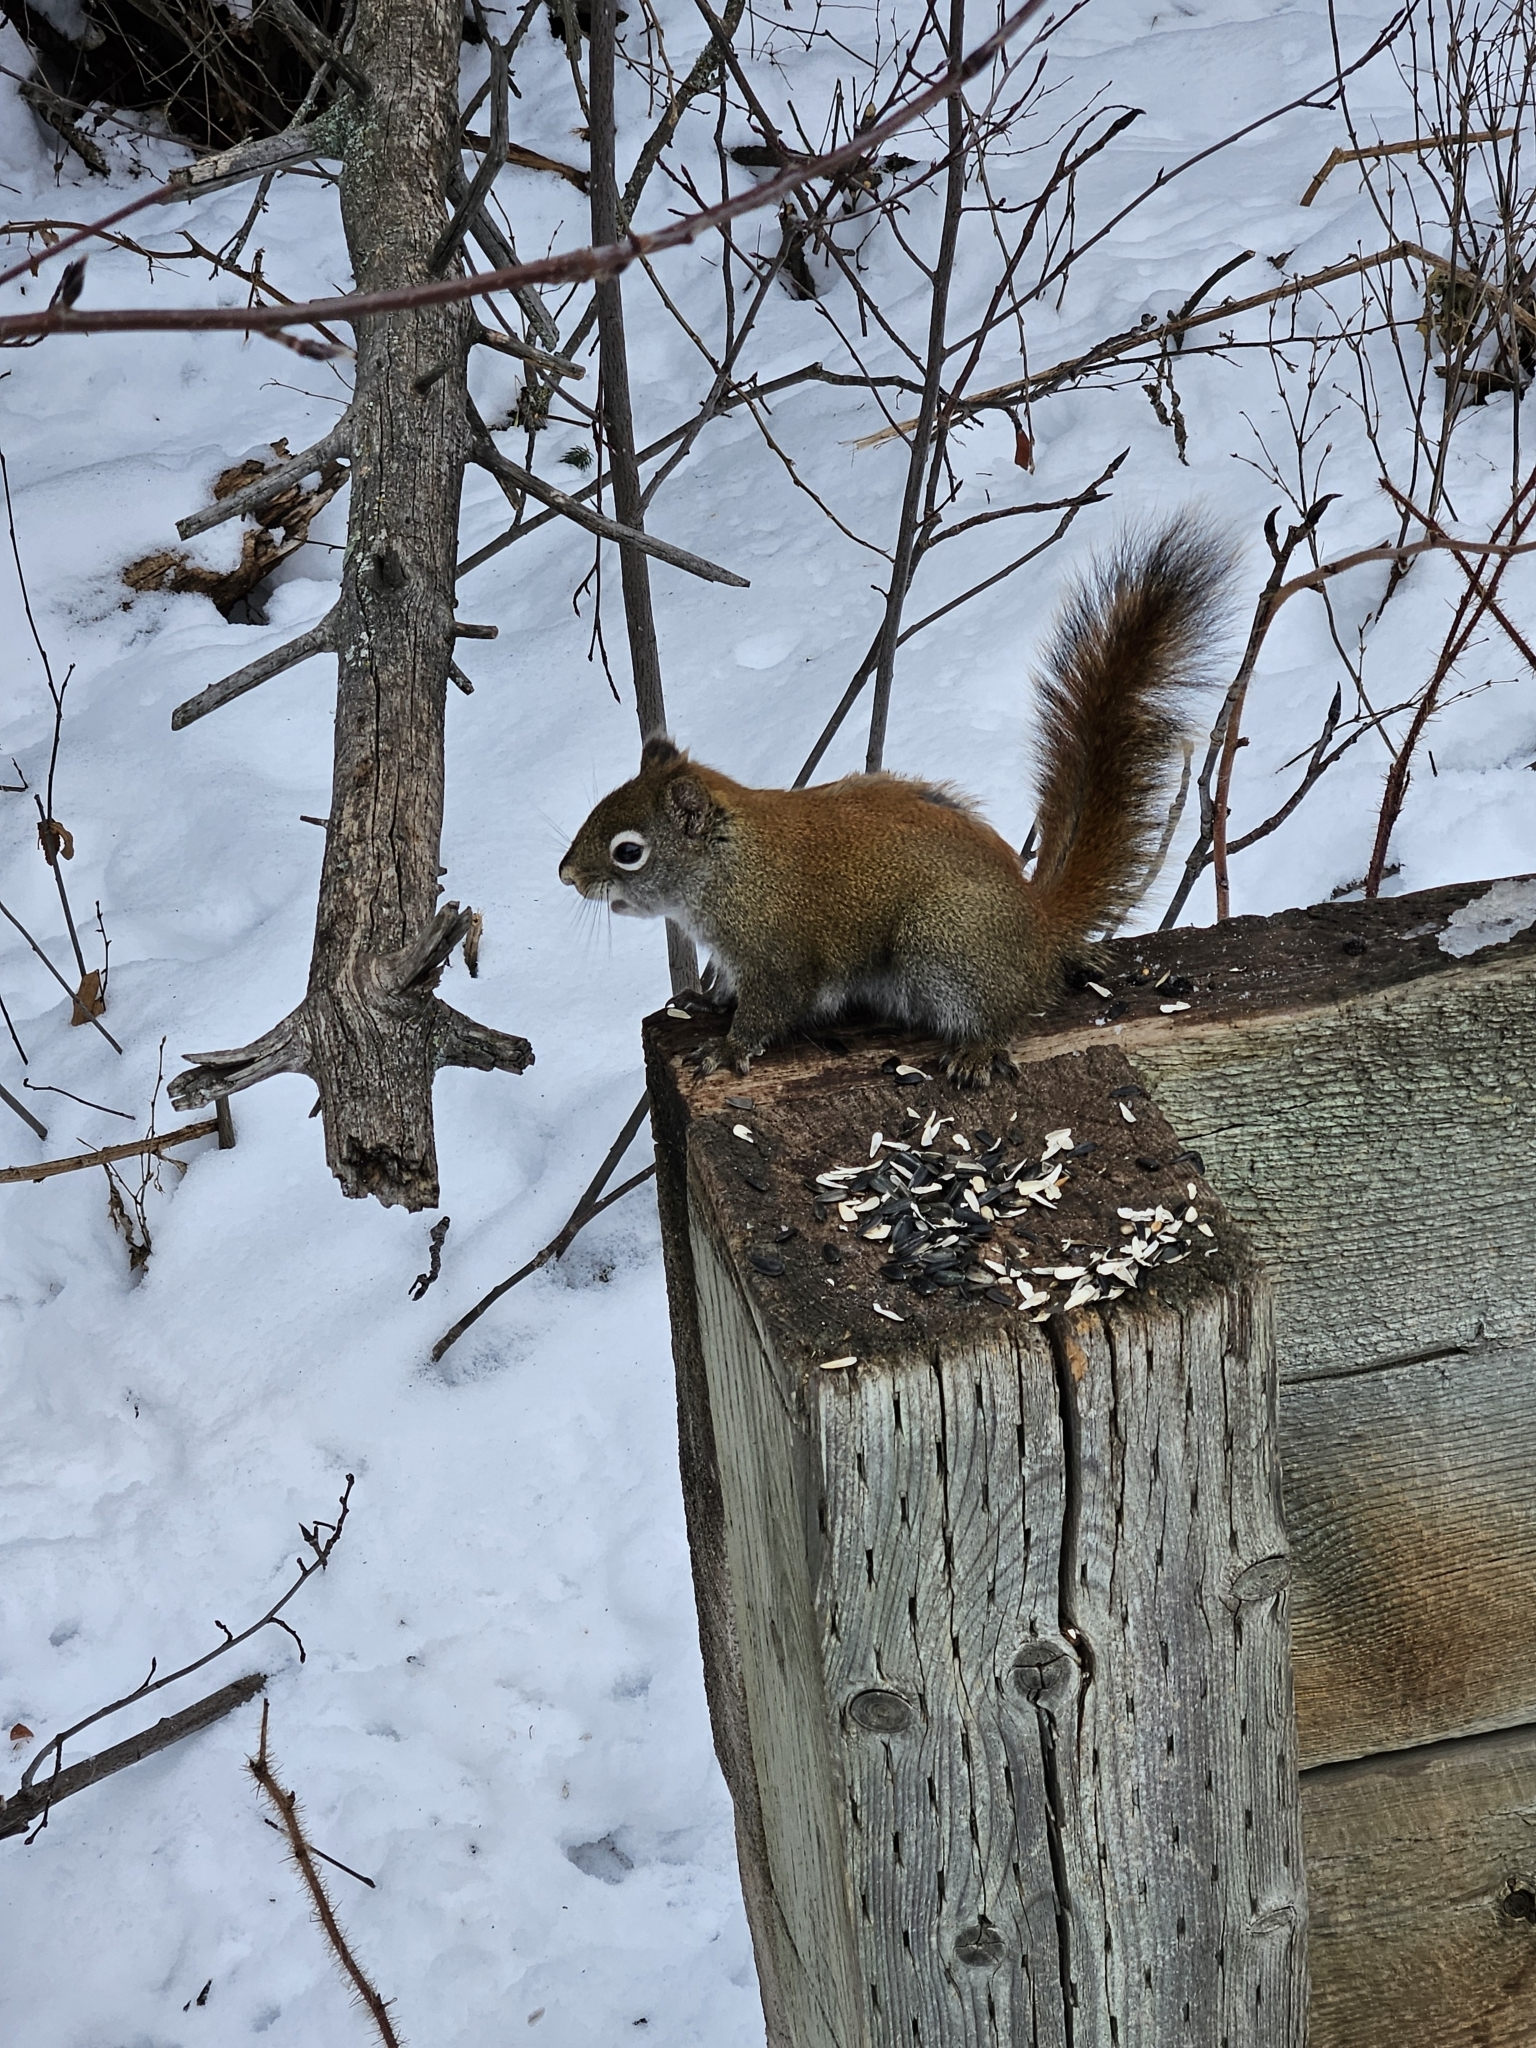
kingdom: Animalia
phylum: Chordata
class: Mammalia
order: Rodentia
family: Sciuridae
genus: Tamiasciurus
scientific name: Tamiasciurus hudsonicus
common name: Red squirrel
